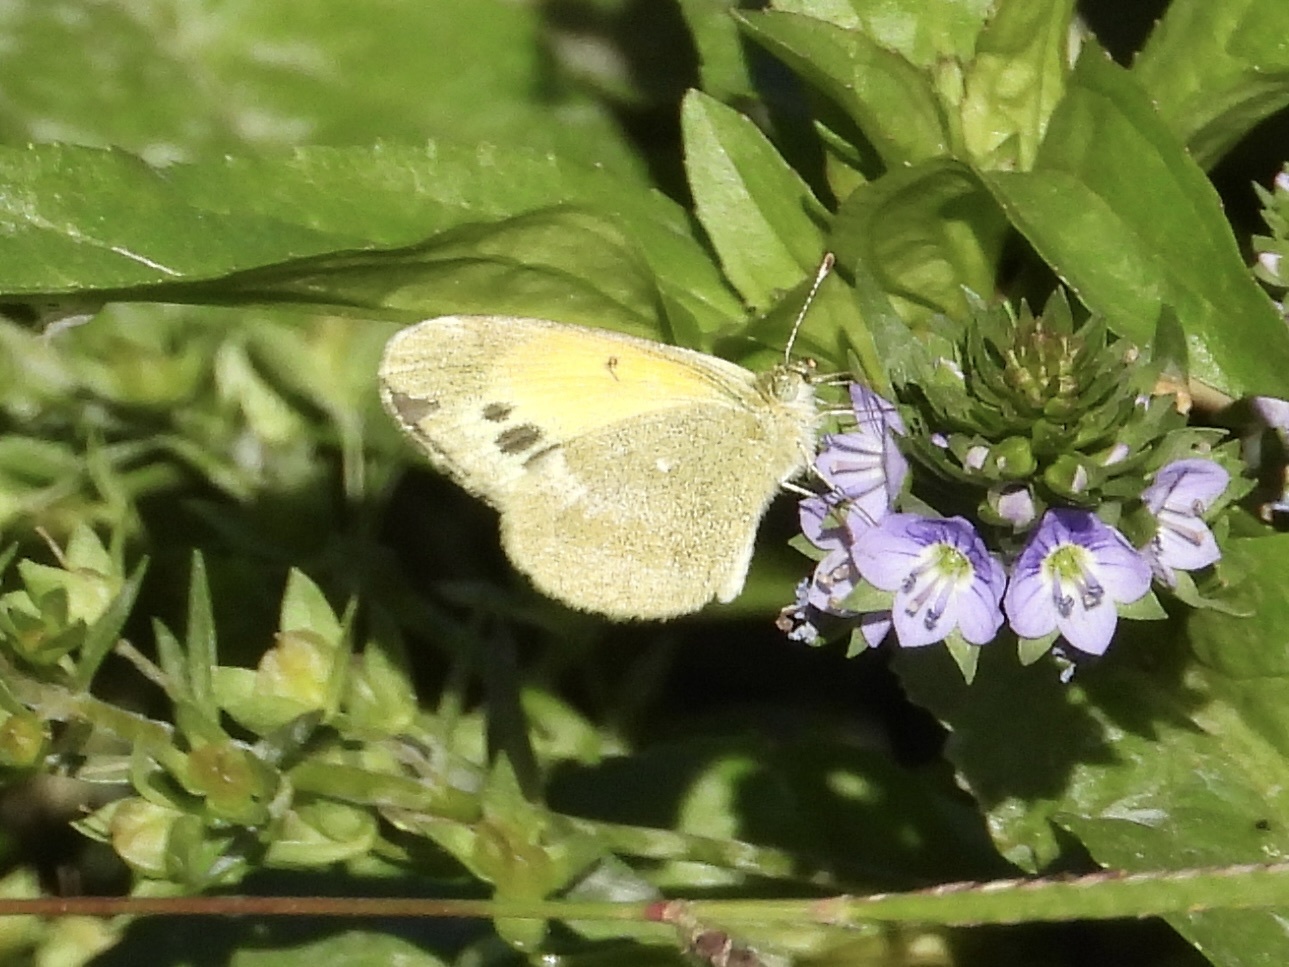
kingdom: Animalia
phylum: Arthropoda
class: Insecta
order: Lepidoptera
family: Pieridae
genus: Nathalis
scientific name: Nathalis iole
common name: Dainty sulphur
